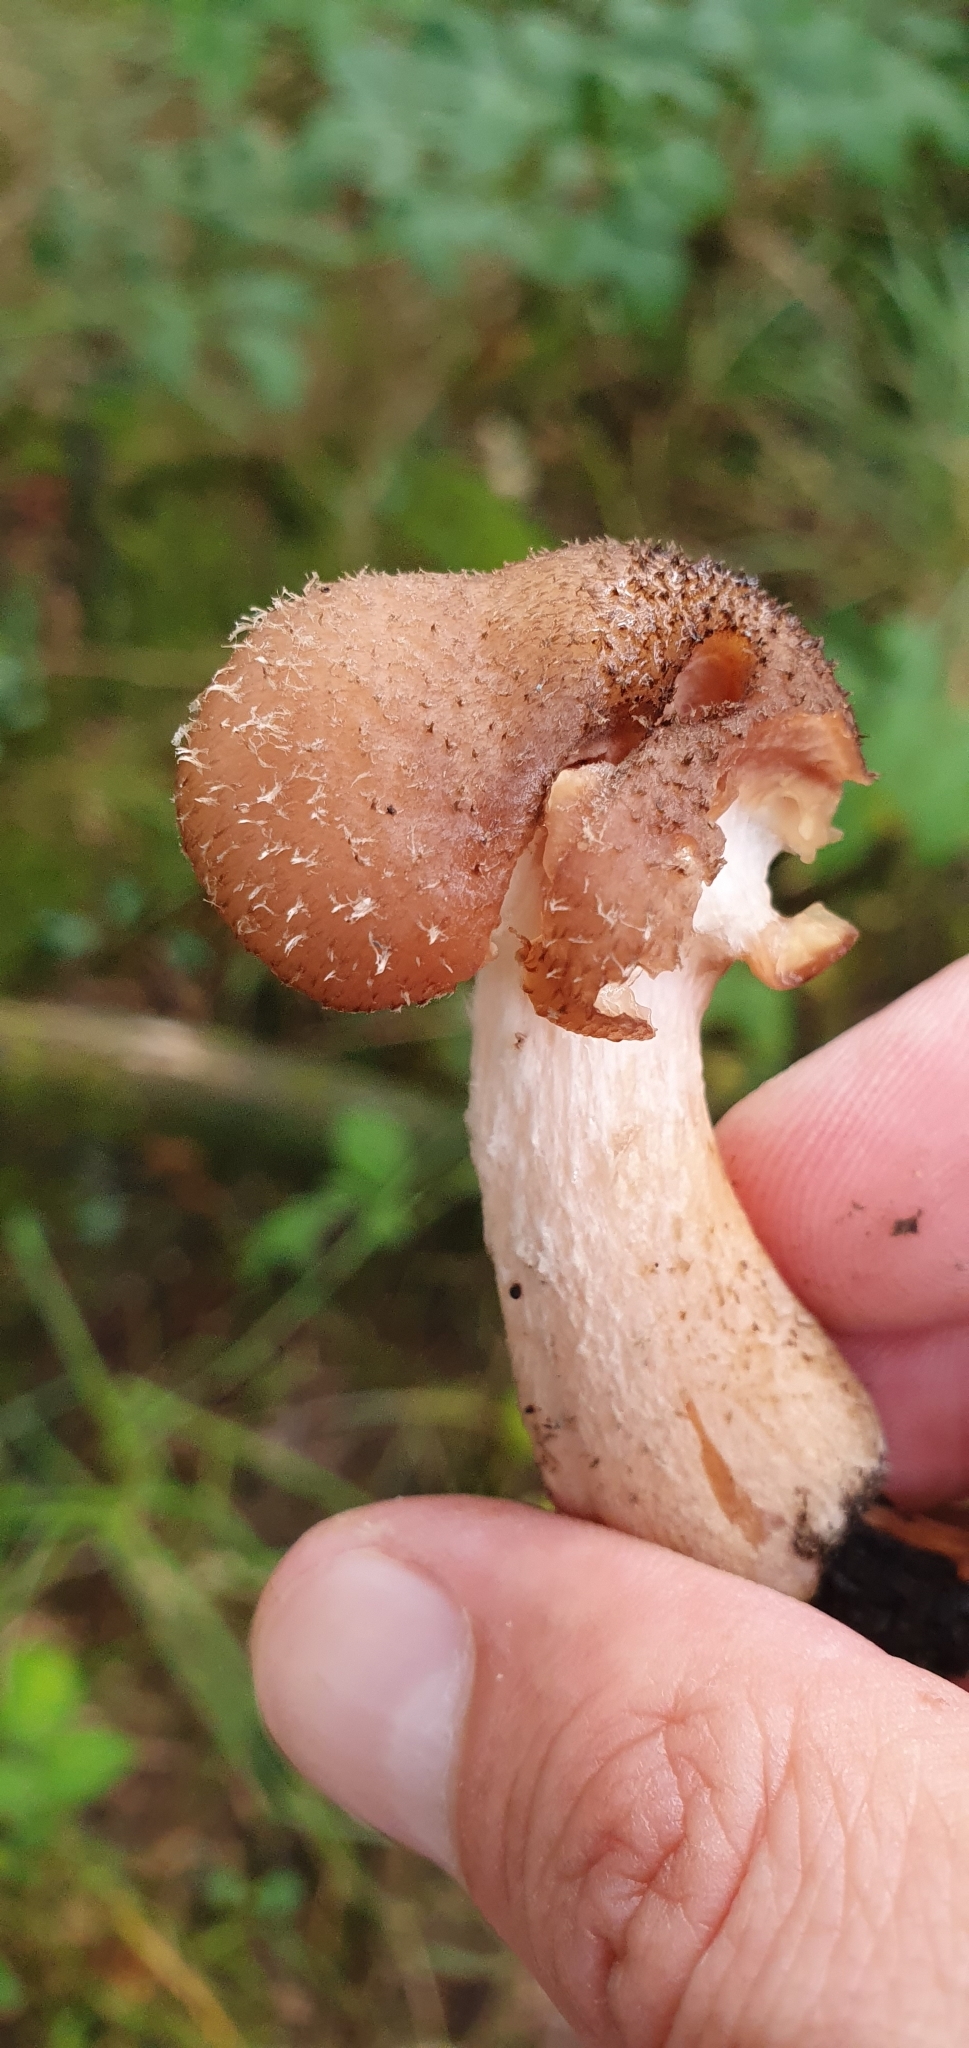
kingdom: Fungi
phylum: Basidiomycota
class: Agaricomycetes
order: Agaricales
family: Physalacriaceae
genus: Armillaria
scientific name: Armillaria gallica
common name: Bulbous honey fungus
